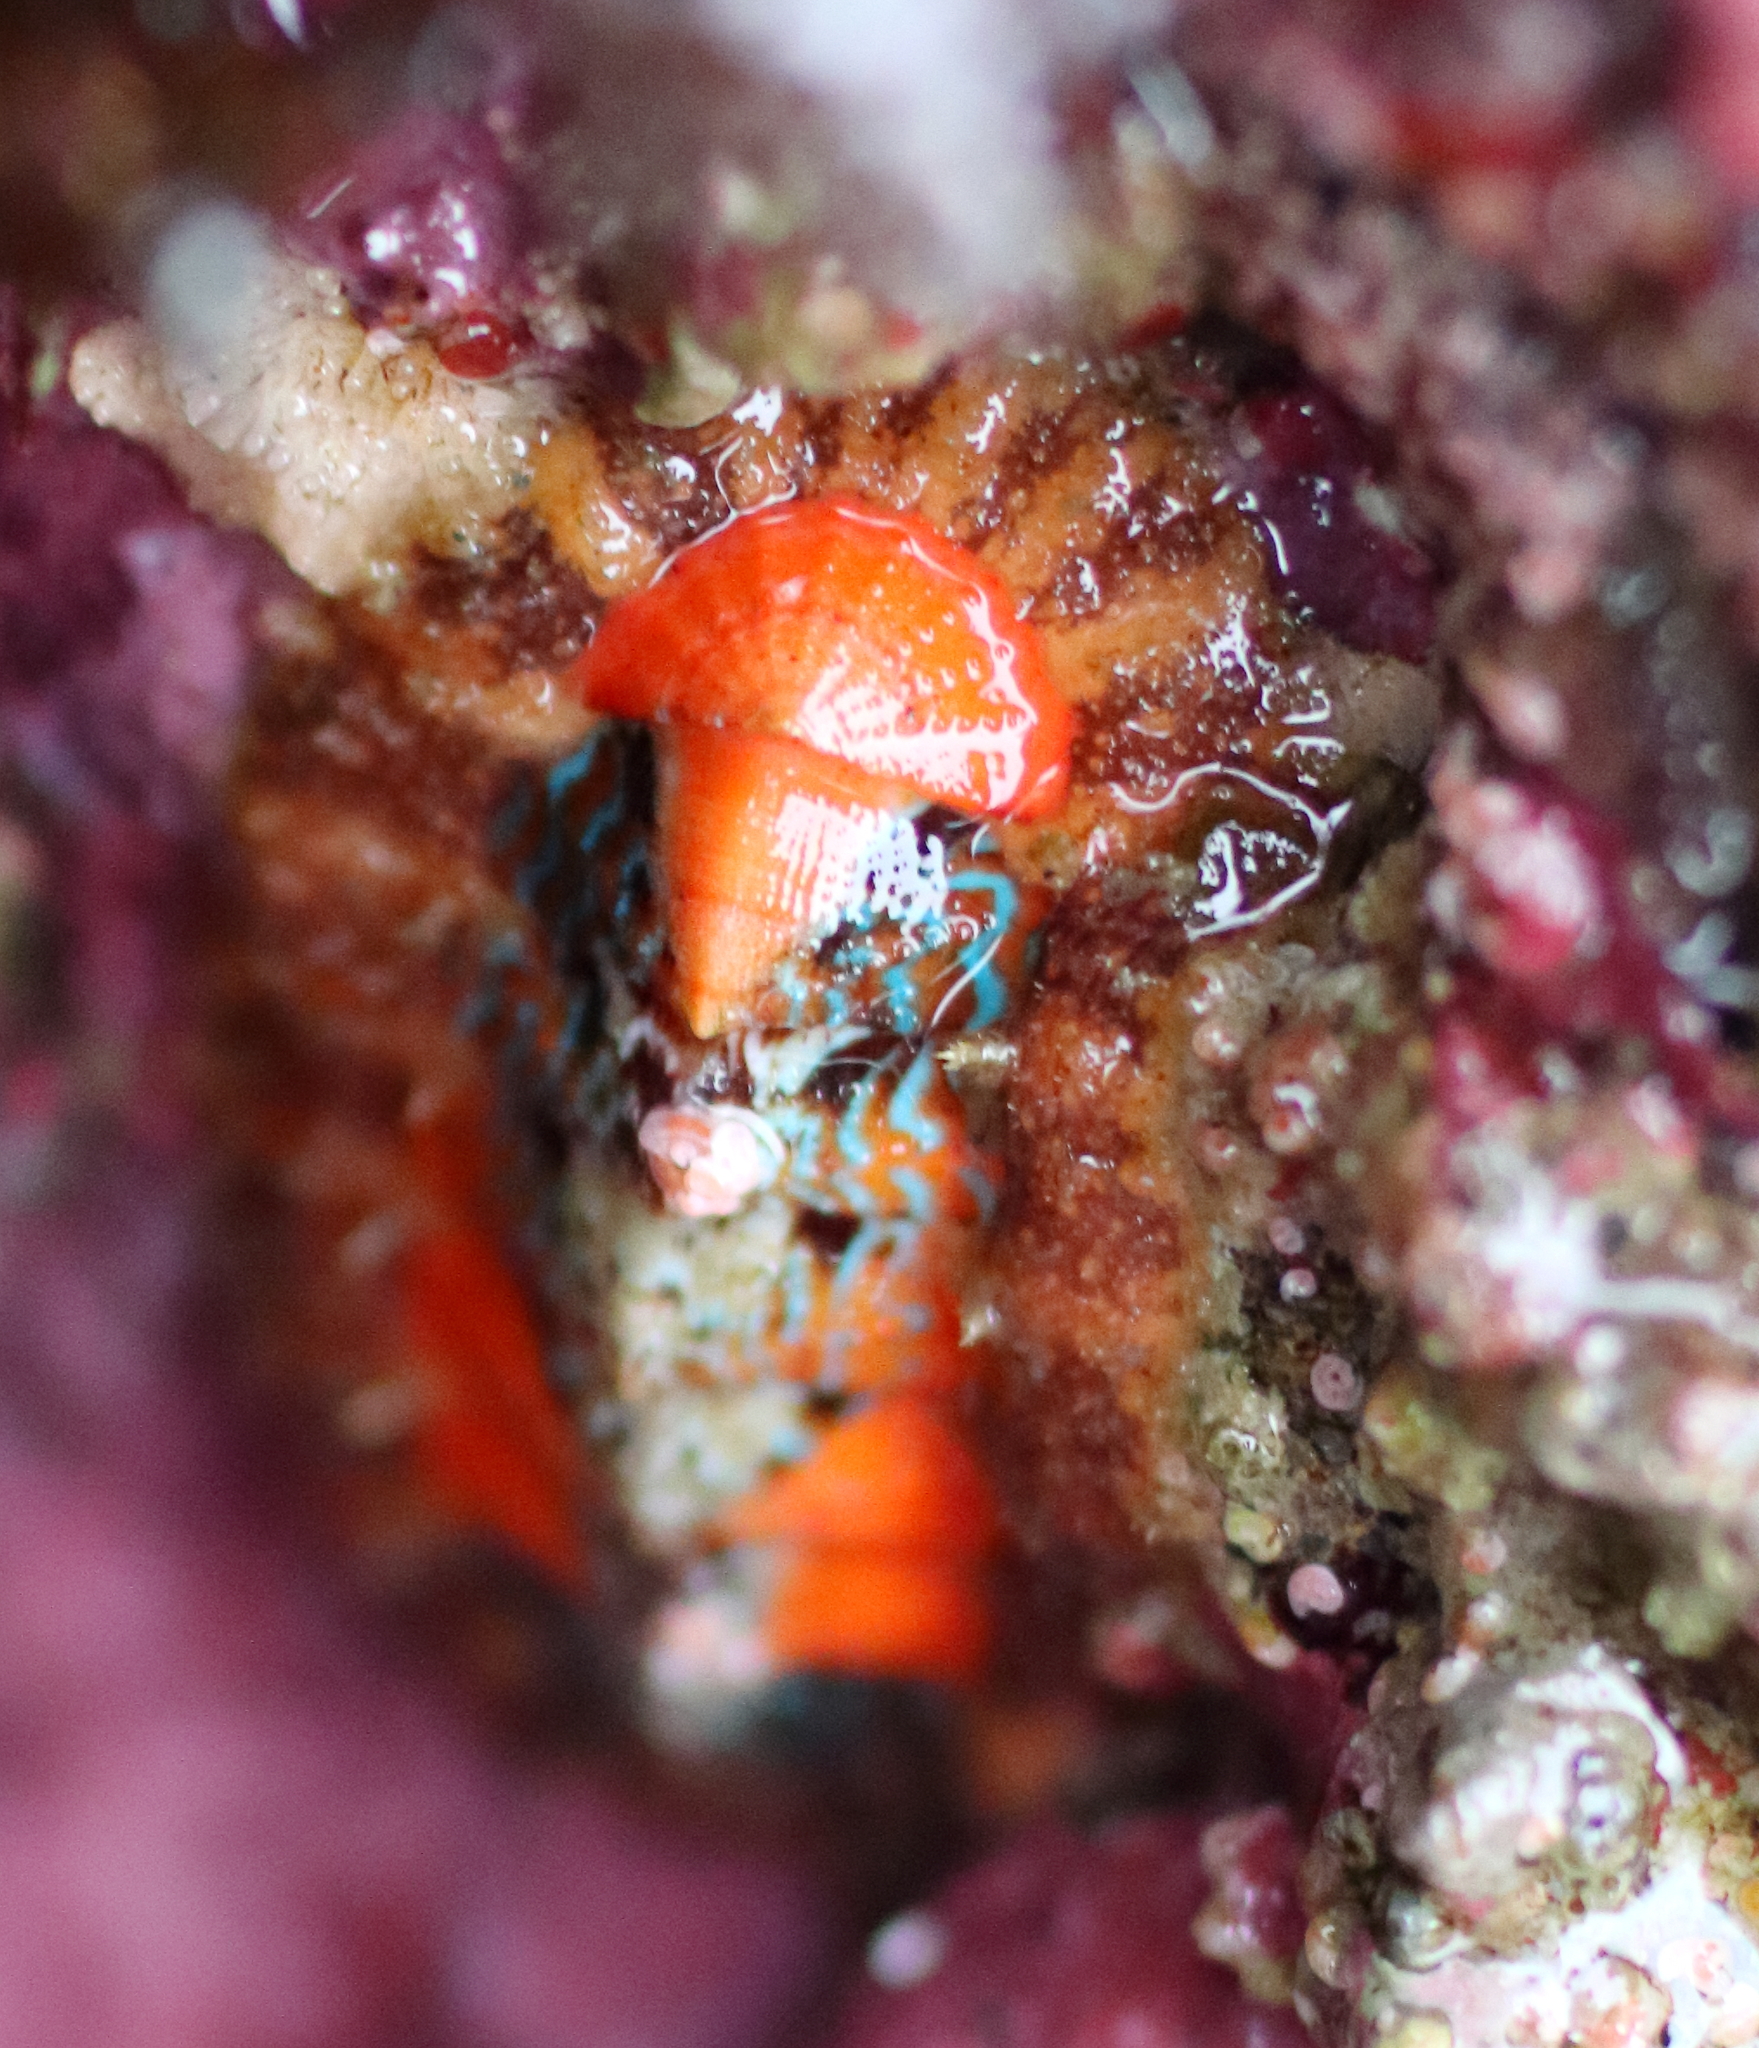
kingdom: Animalia
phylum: Mollusca
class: Polyplacophora
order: Chitonida
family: Mopaliidae
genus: Mopalia
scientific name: Mopalia spectabilis
